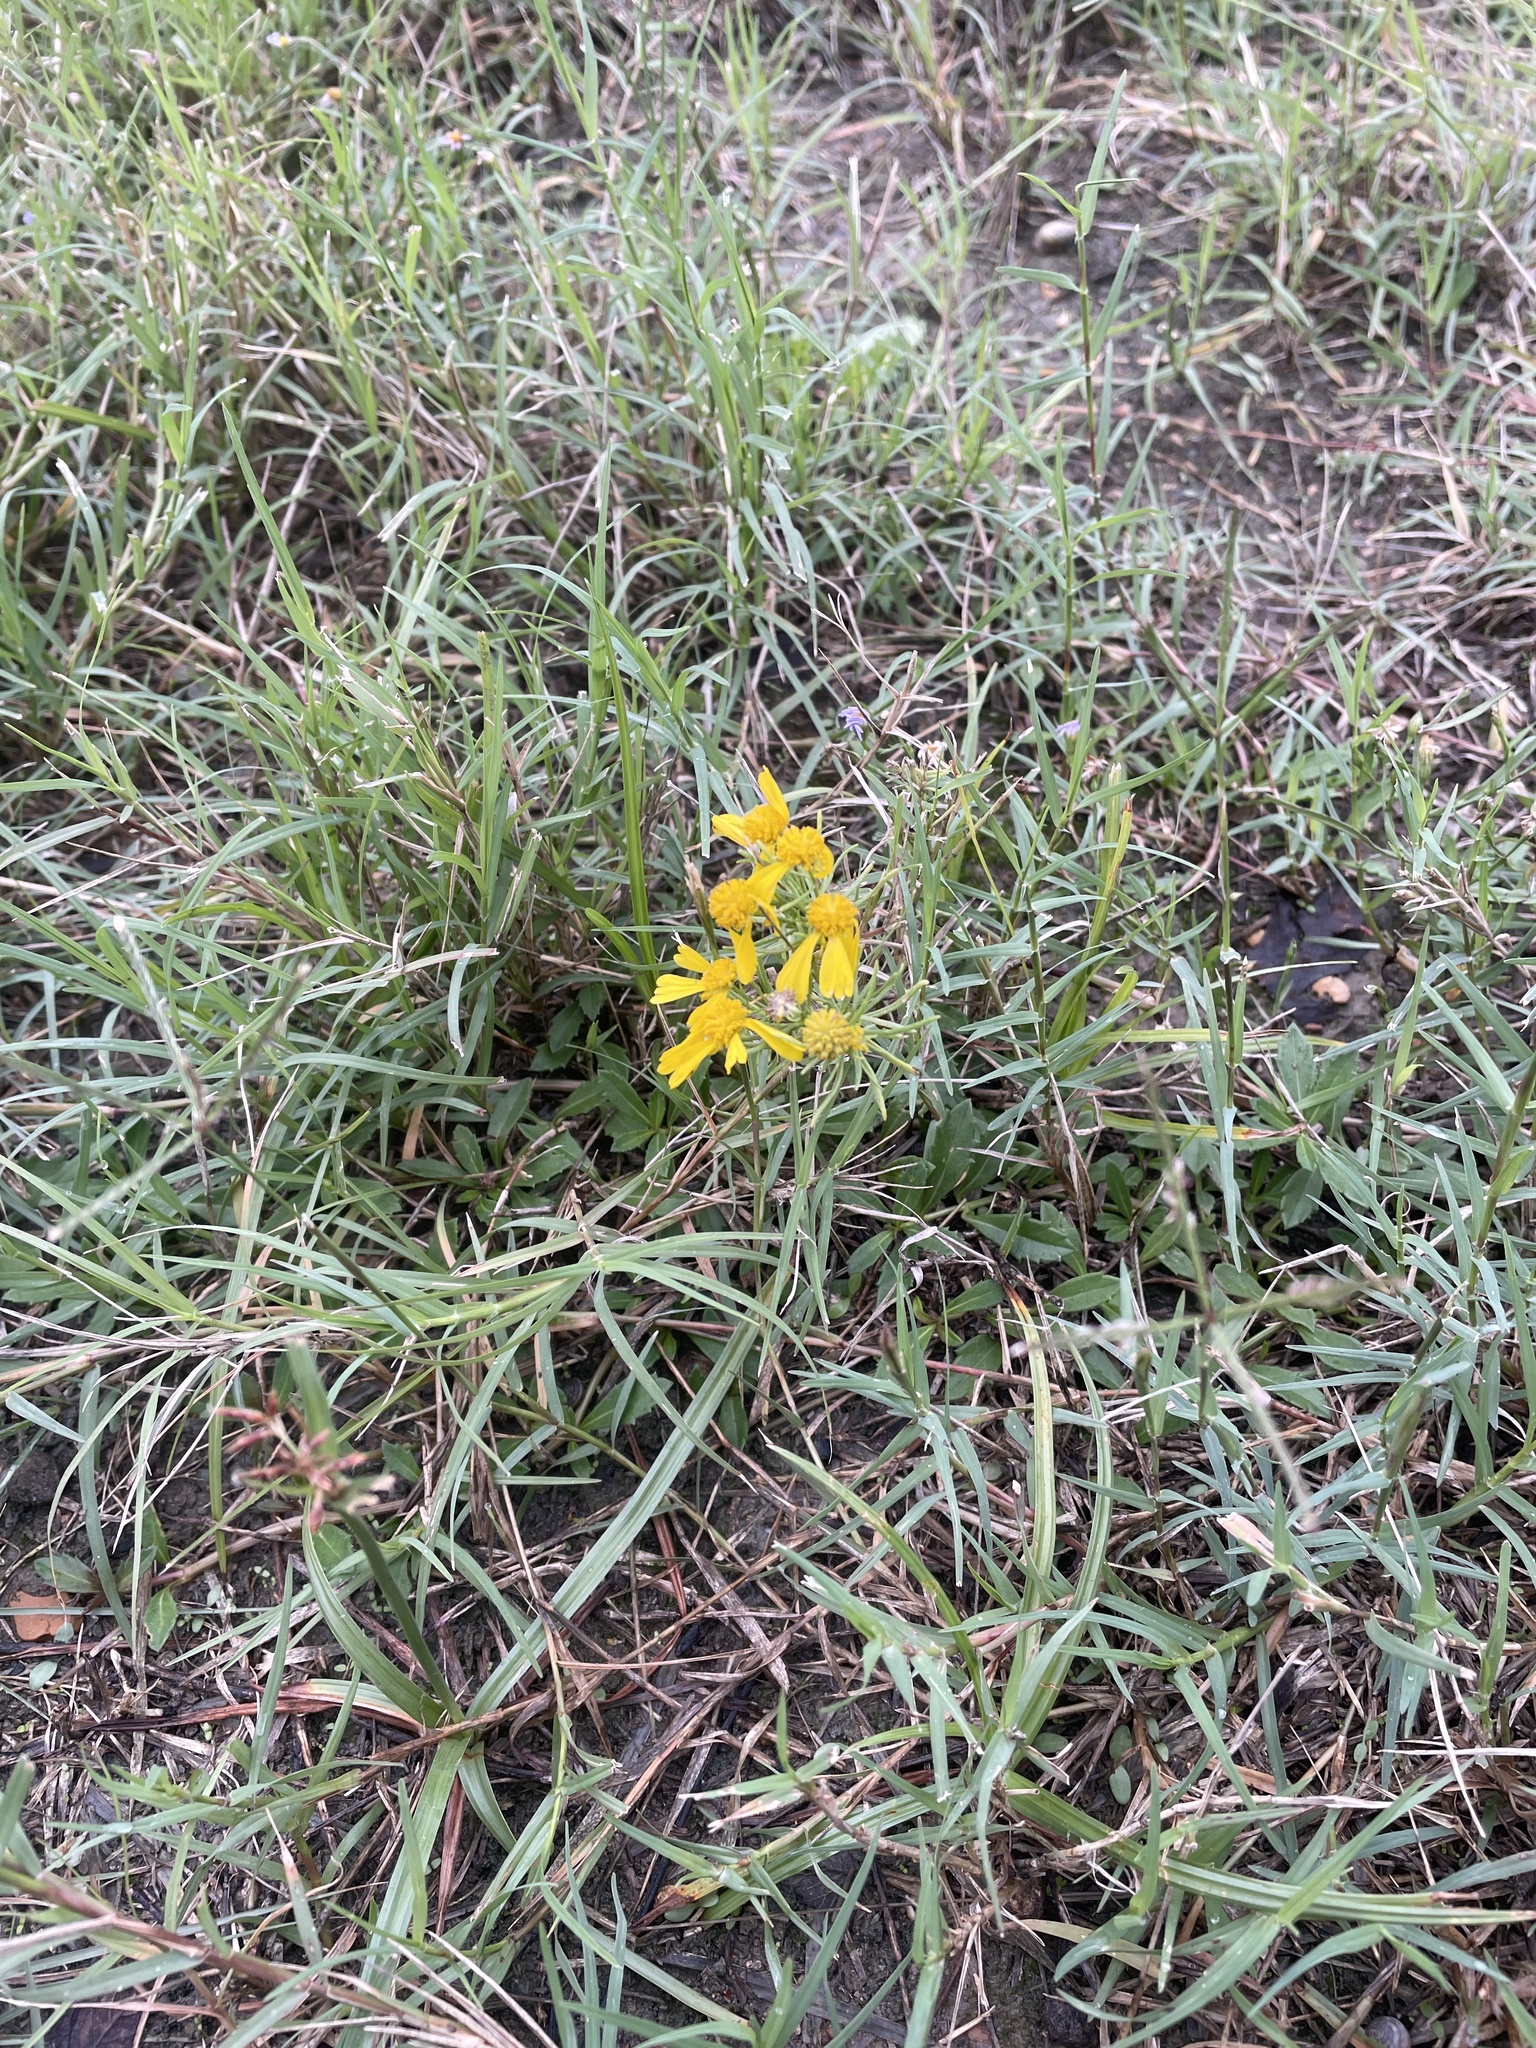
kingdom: Plantae
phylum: Tracheophyta
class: Magnoliopsida
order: Asterales
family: Asteraceae
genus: Helenium
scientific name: Helenium amarum
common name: Bitter sneezeweed
